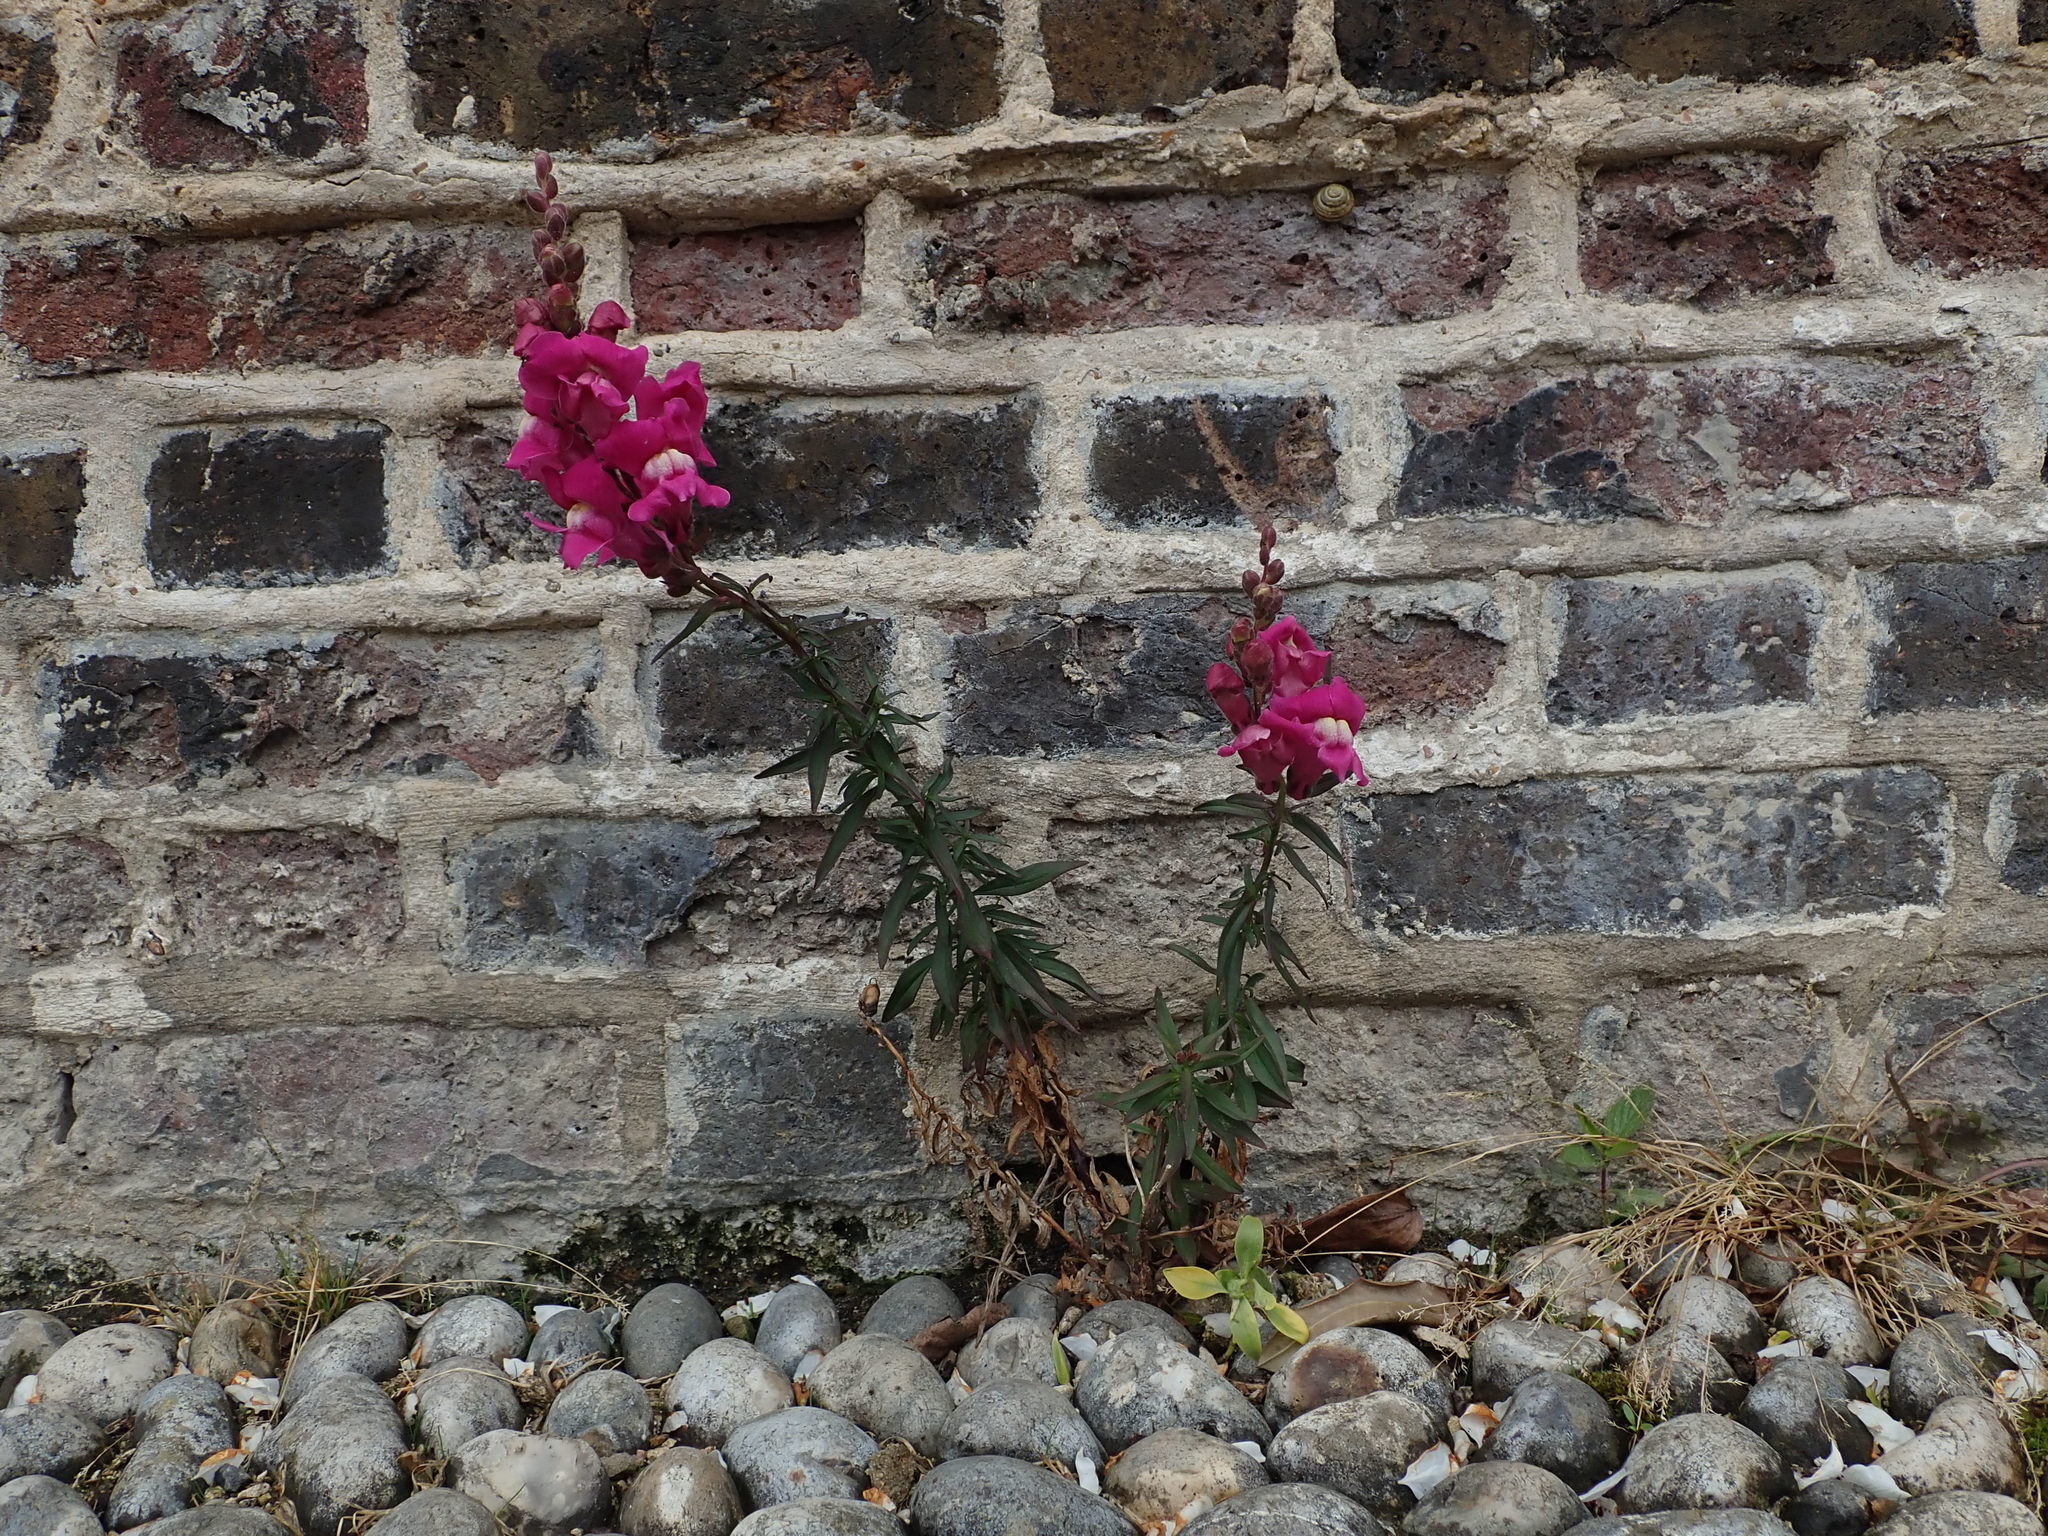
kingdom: Plantae
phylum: Tracheophyta
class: Magnoliopsida
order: Lamiales
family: Plantaginaceae
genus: Antirrhinum
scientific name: Antirrhinum majus
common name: Snapdragon
